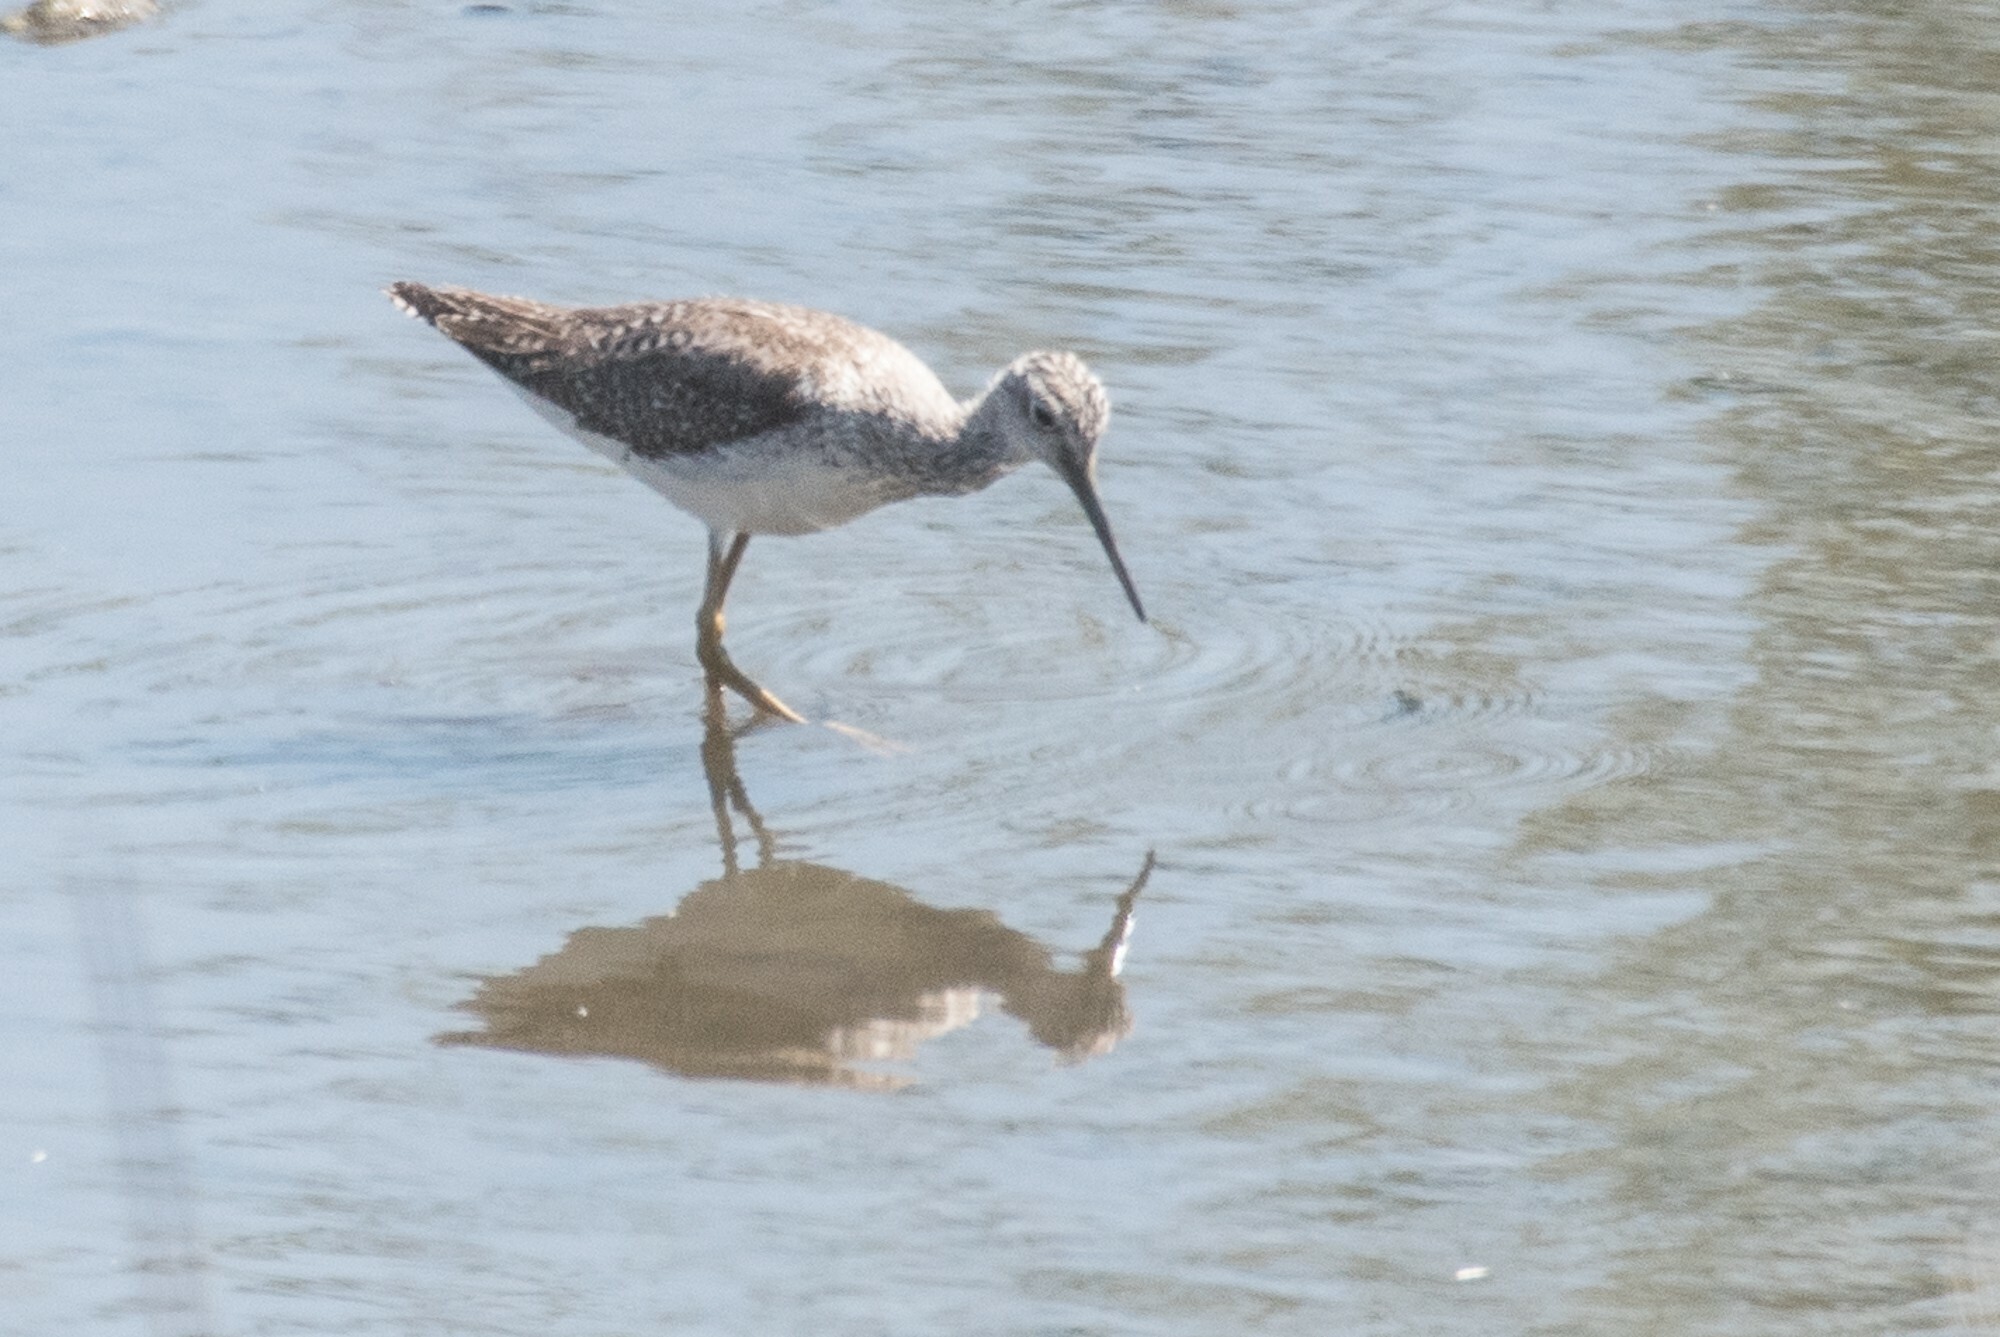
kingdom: Animalia
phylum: Chordata
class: Aves
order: Charadriiformes
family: Scolopacidae
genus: Tringa
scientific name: Tringa melanoleuca
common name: Greater yellowlegs
